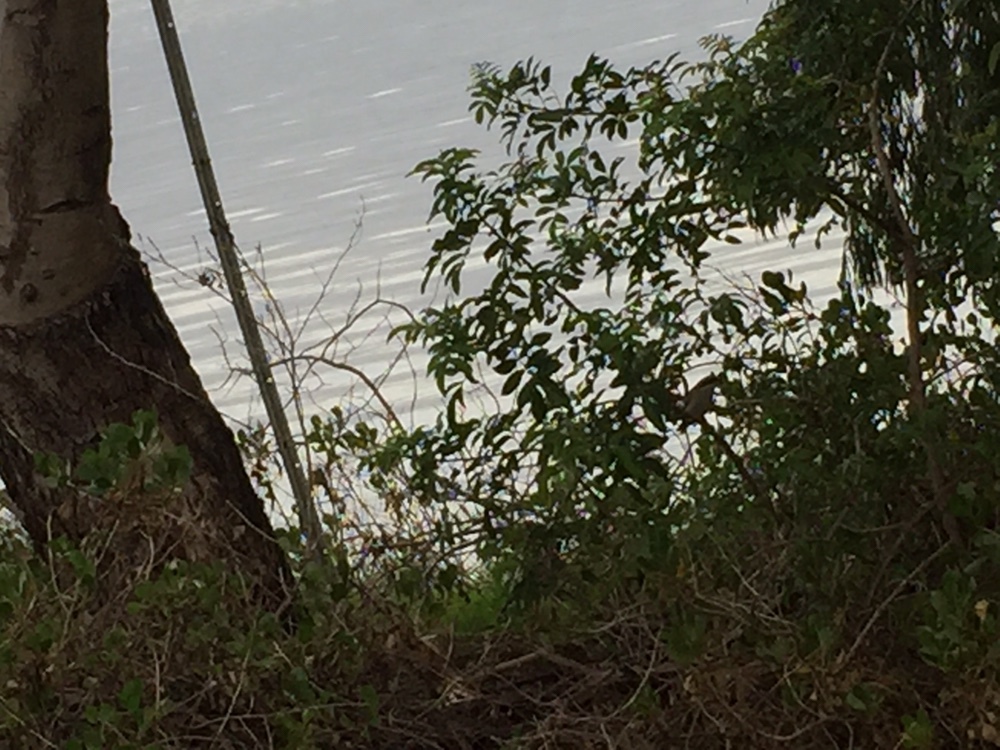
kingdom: Animalia
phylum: Chordata
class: Aves
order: Passeriformes
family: Meliphagidae
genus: Gavicalis
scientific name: Gavicalis virescens
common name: Singing honeyeater
